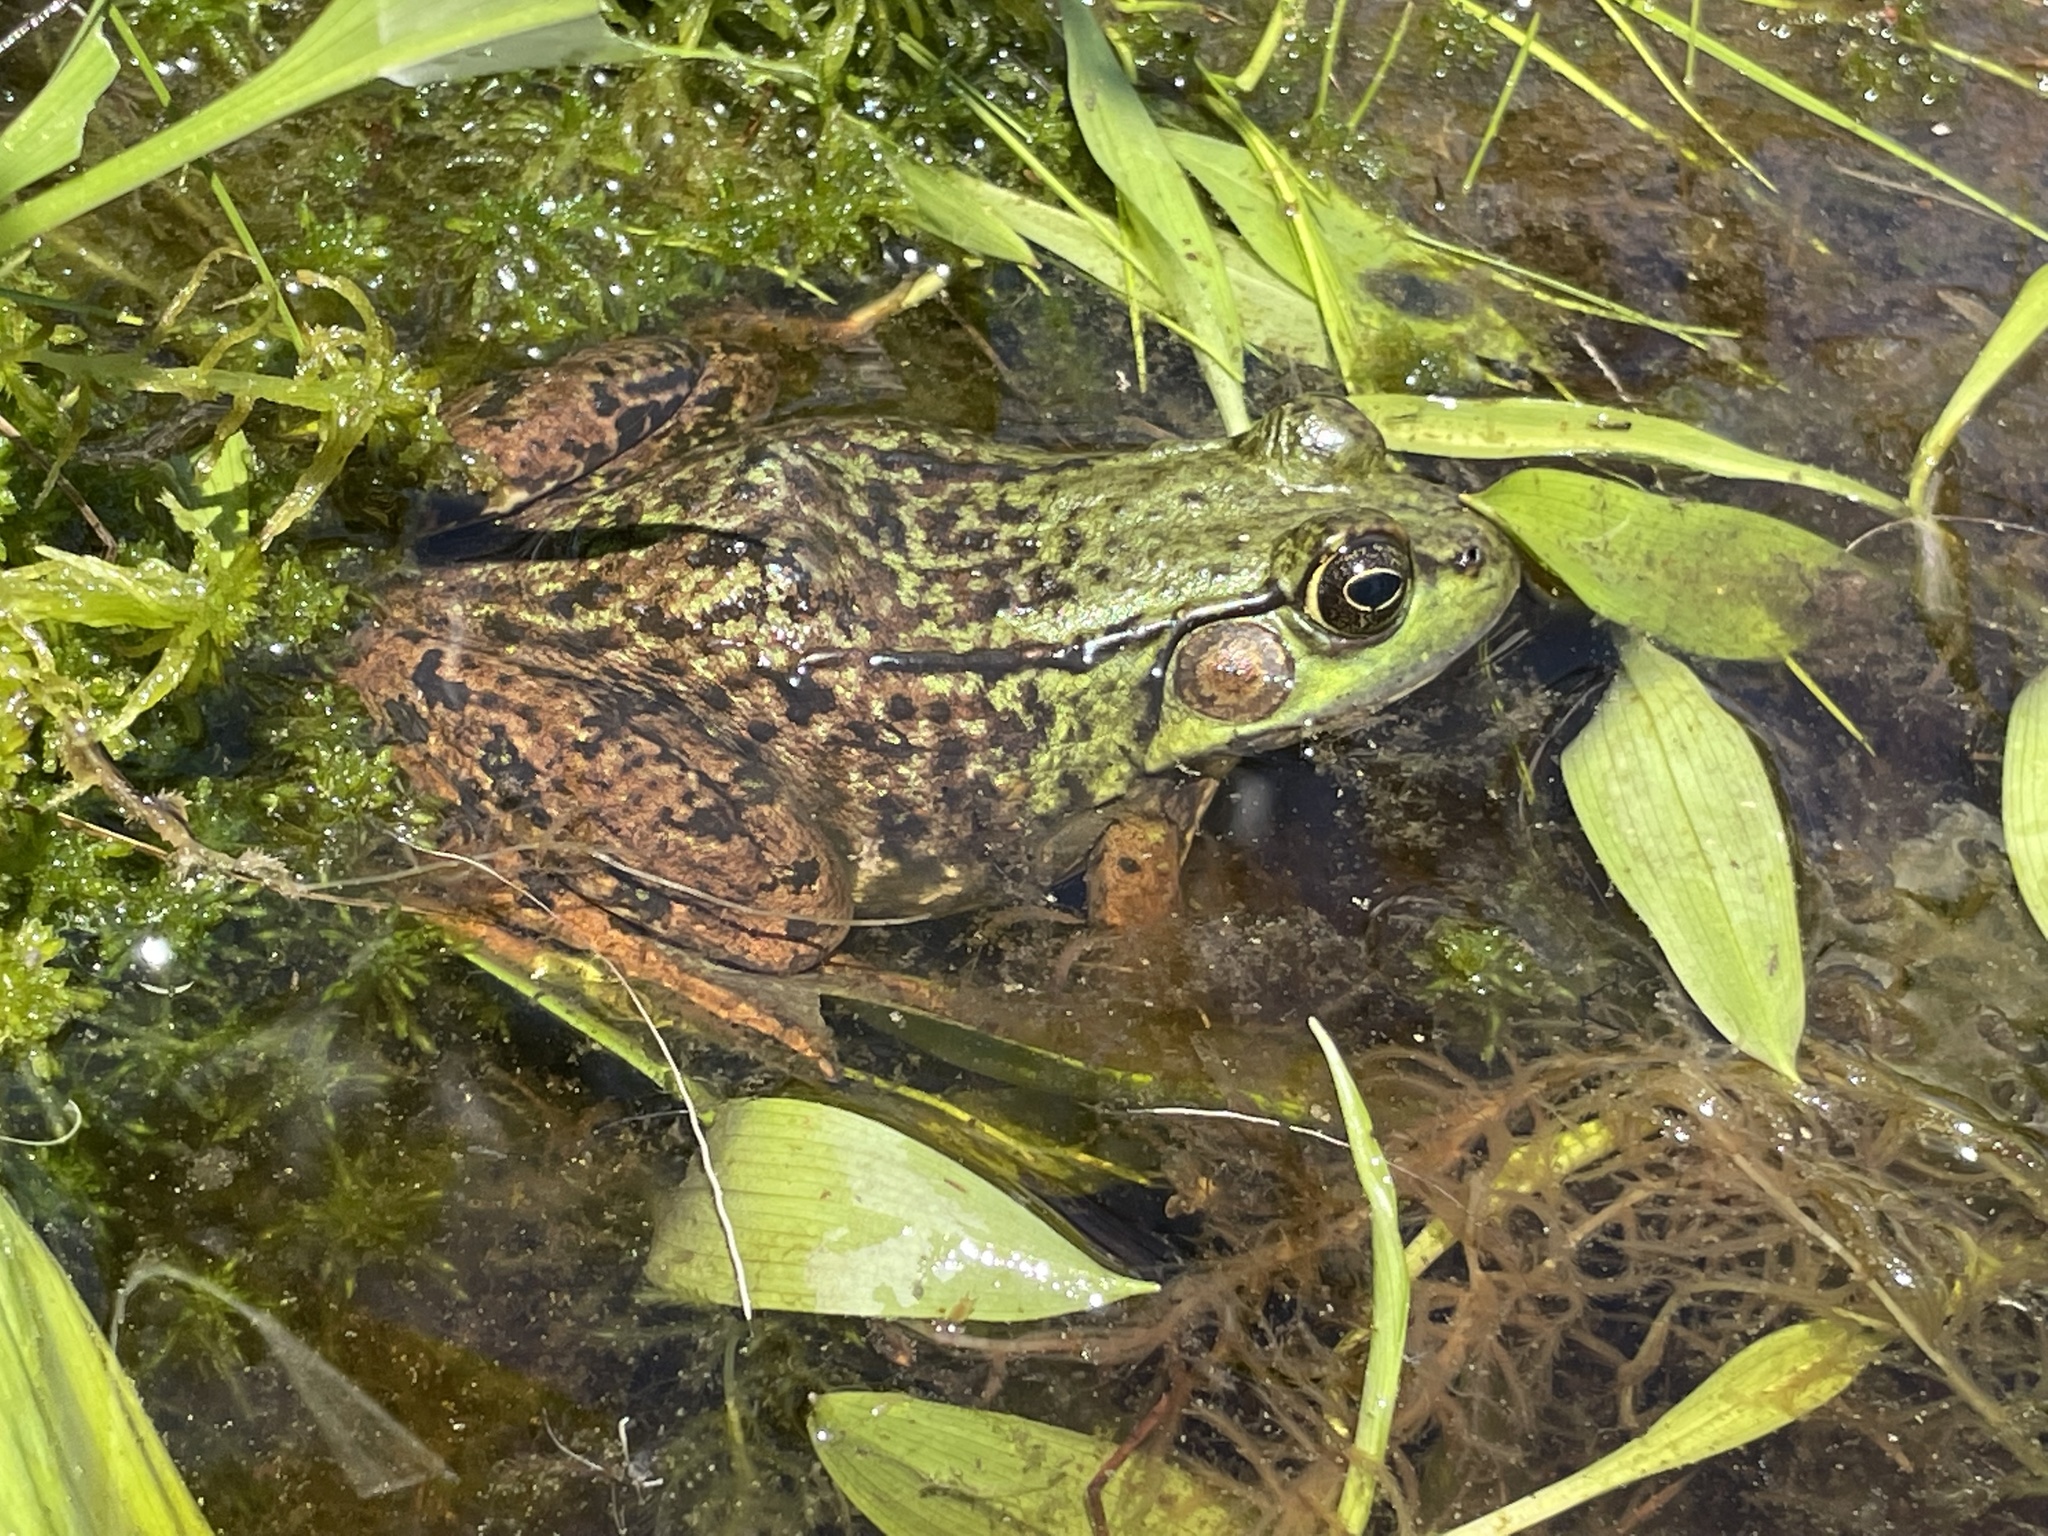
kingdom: Animalia
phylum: Chordata
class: Amphibia
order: Anura
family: Ranidae
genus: Lithobates
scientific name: Lithobates clamitans
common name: Green frog
